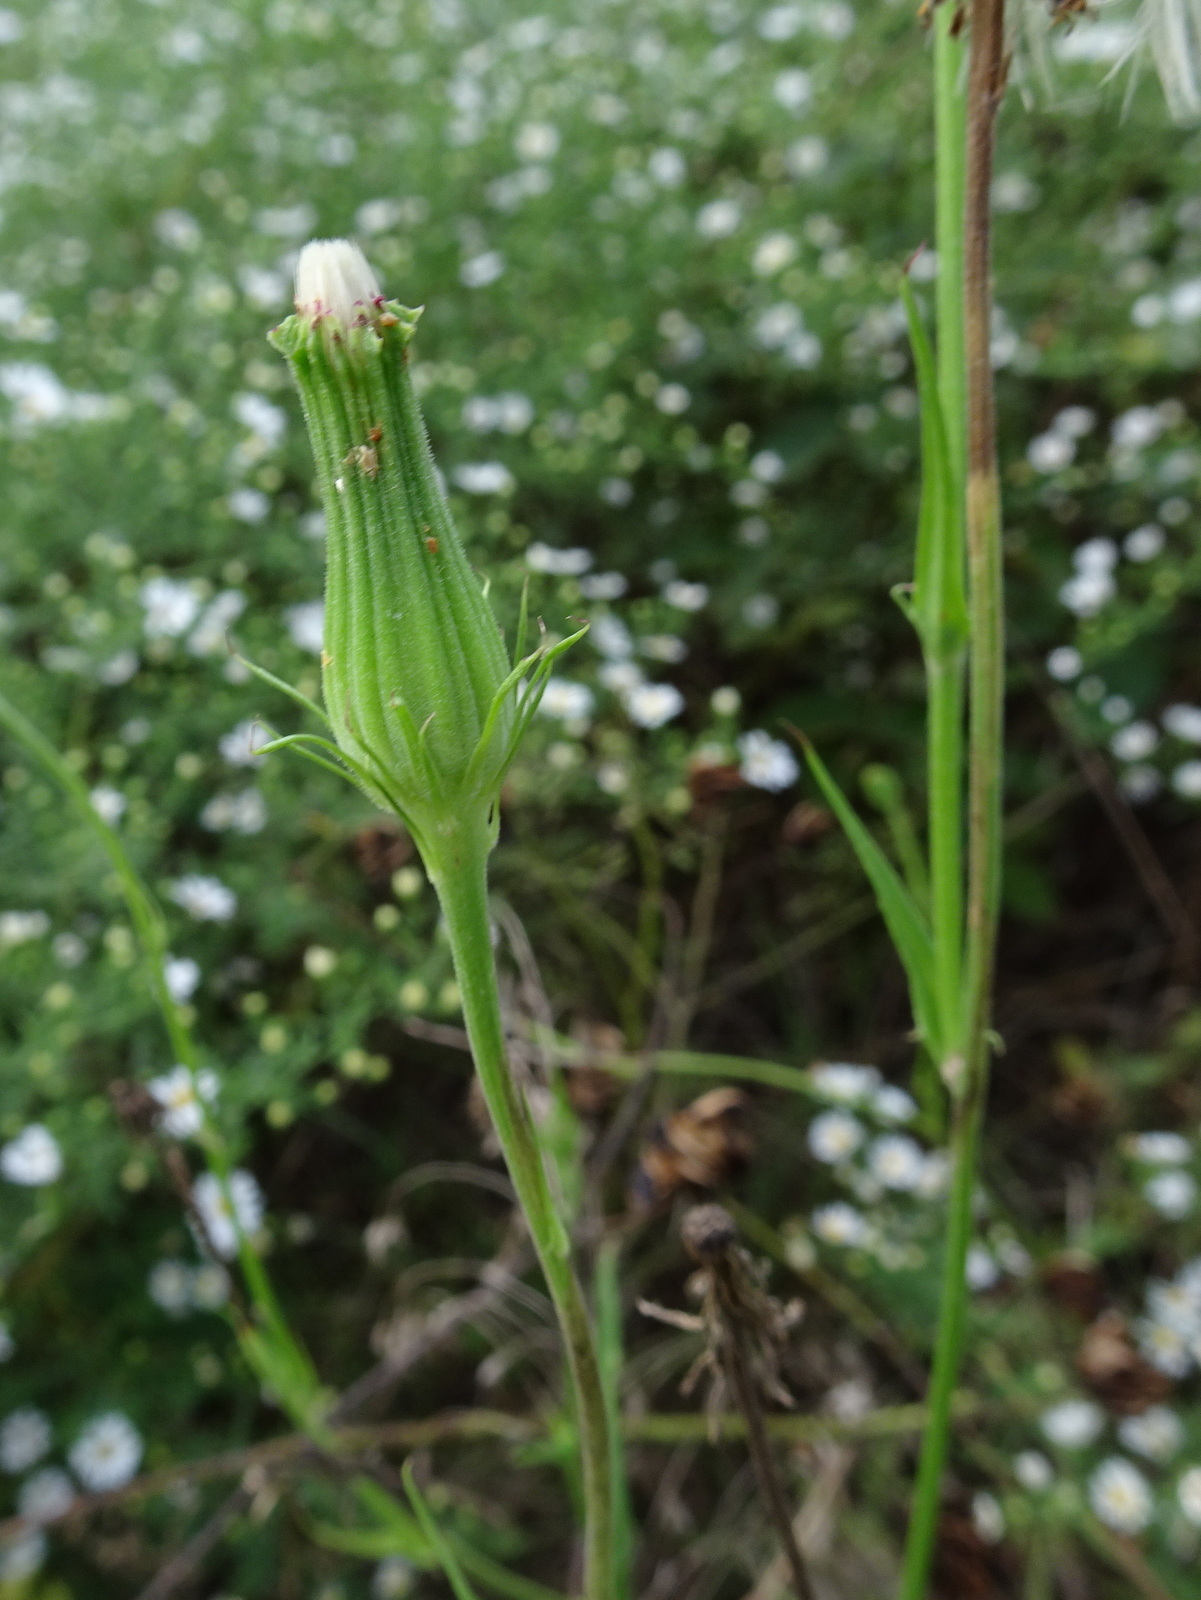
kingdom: Plantae
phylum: Tracheophyta
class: Magnoliopsida
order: Asterales
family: Asteraceae
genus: Pyrrhopappus
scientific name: Pyrrhopappus carolinianus
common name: Carolina desert-chicory
